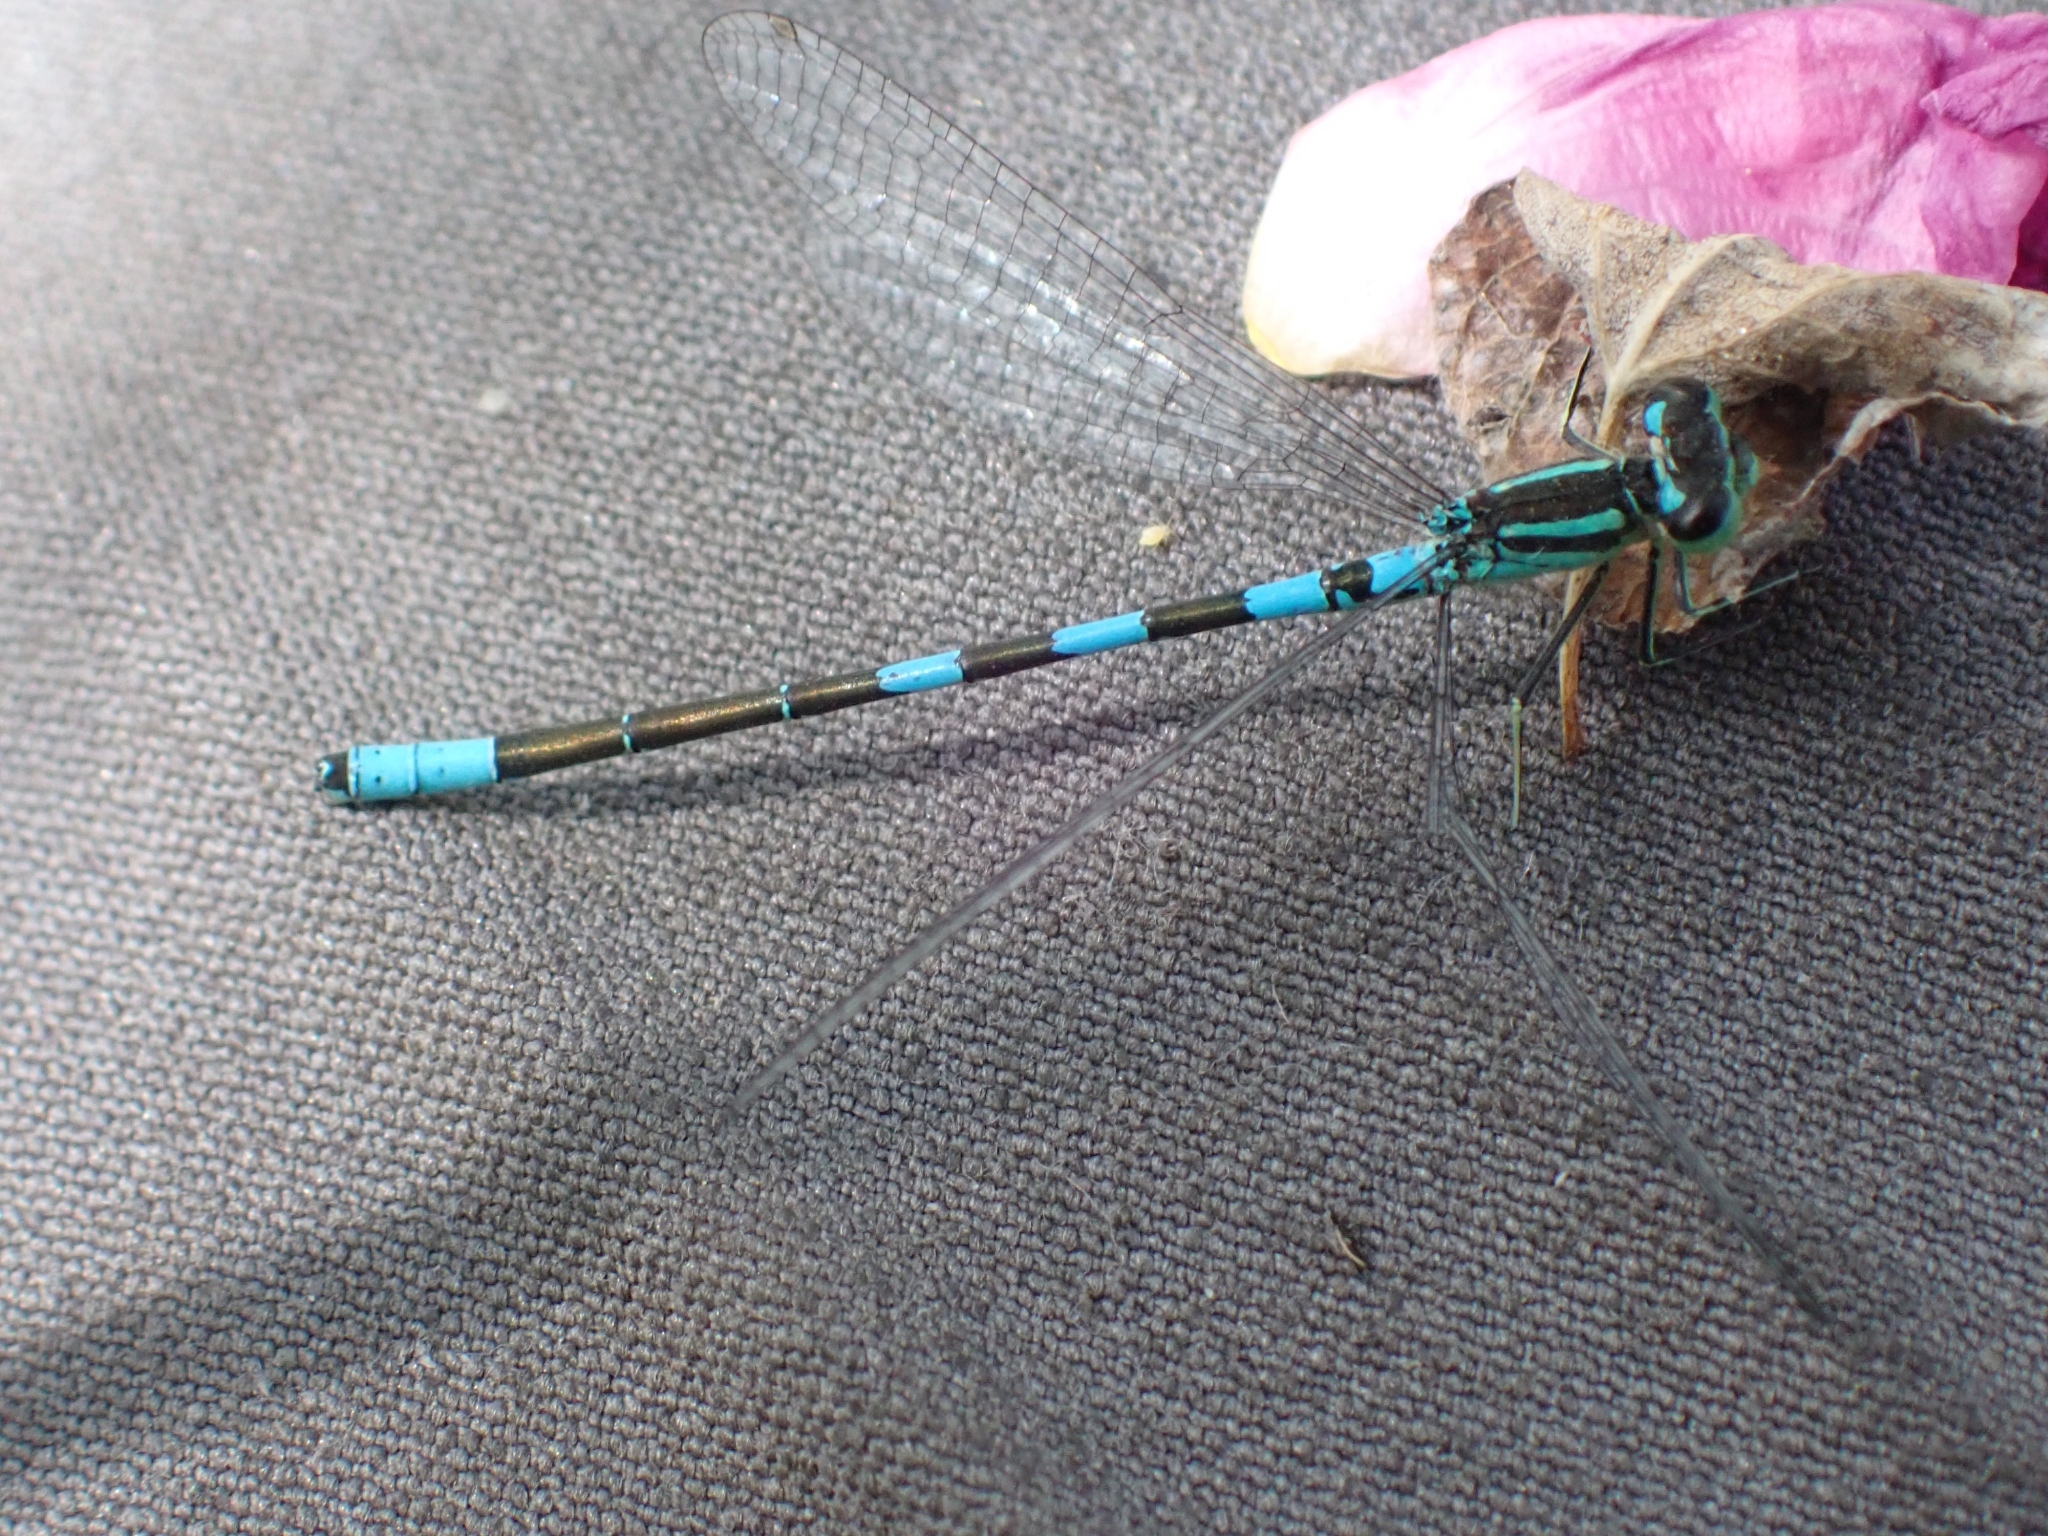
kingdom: Animalia
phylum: Arthropoda
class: Insecta
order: Odonata
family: Coenagrionidae
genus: Coenagrion
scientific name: Coenagrion resolutum
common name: Taiga bluet
